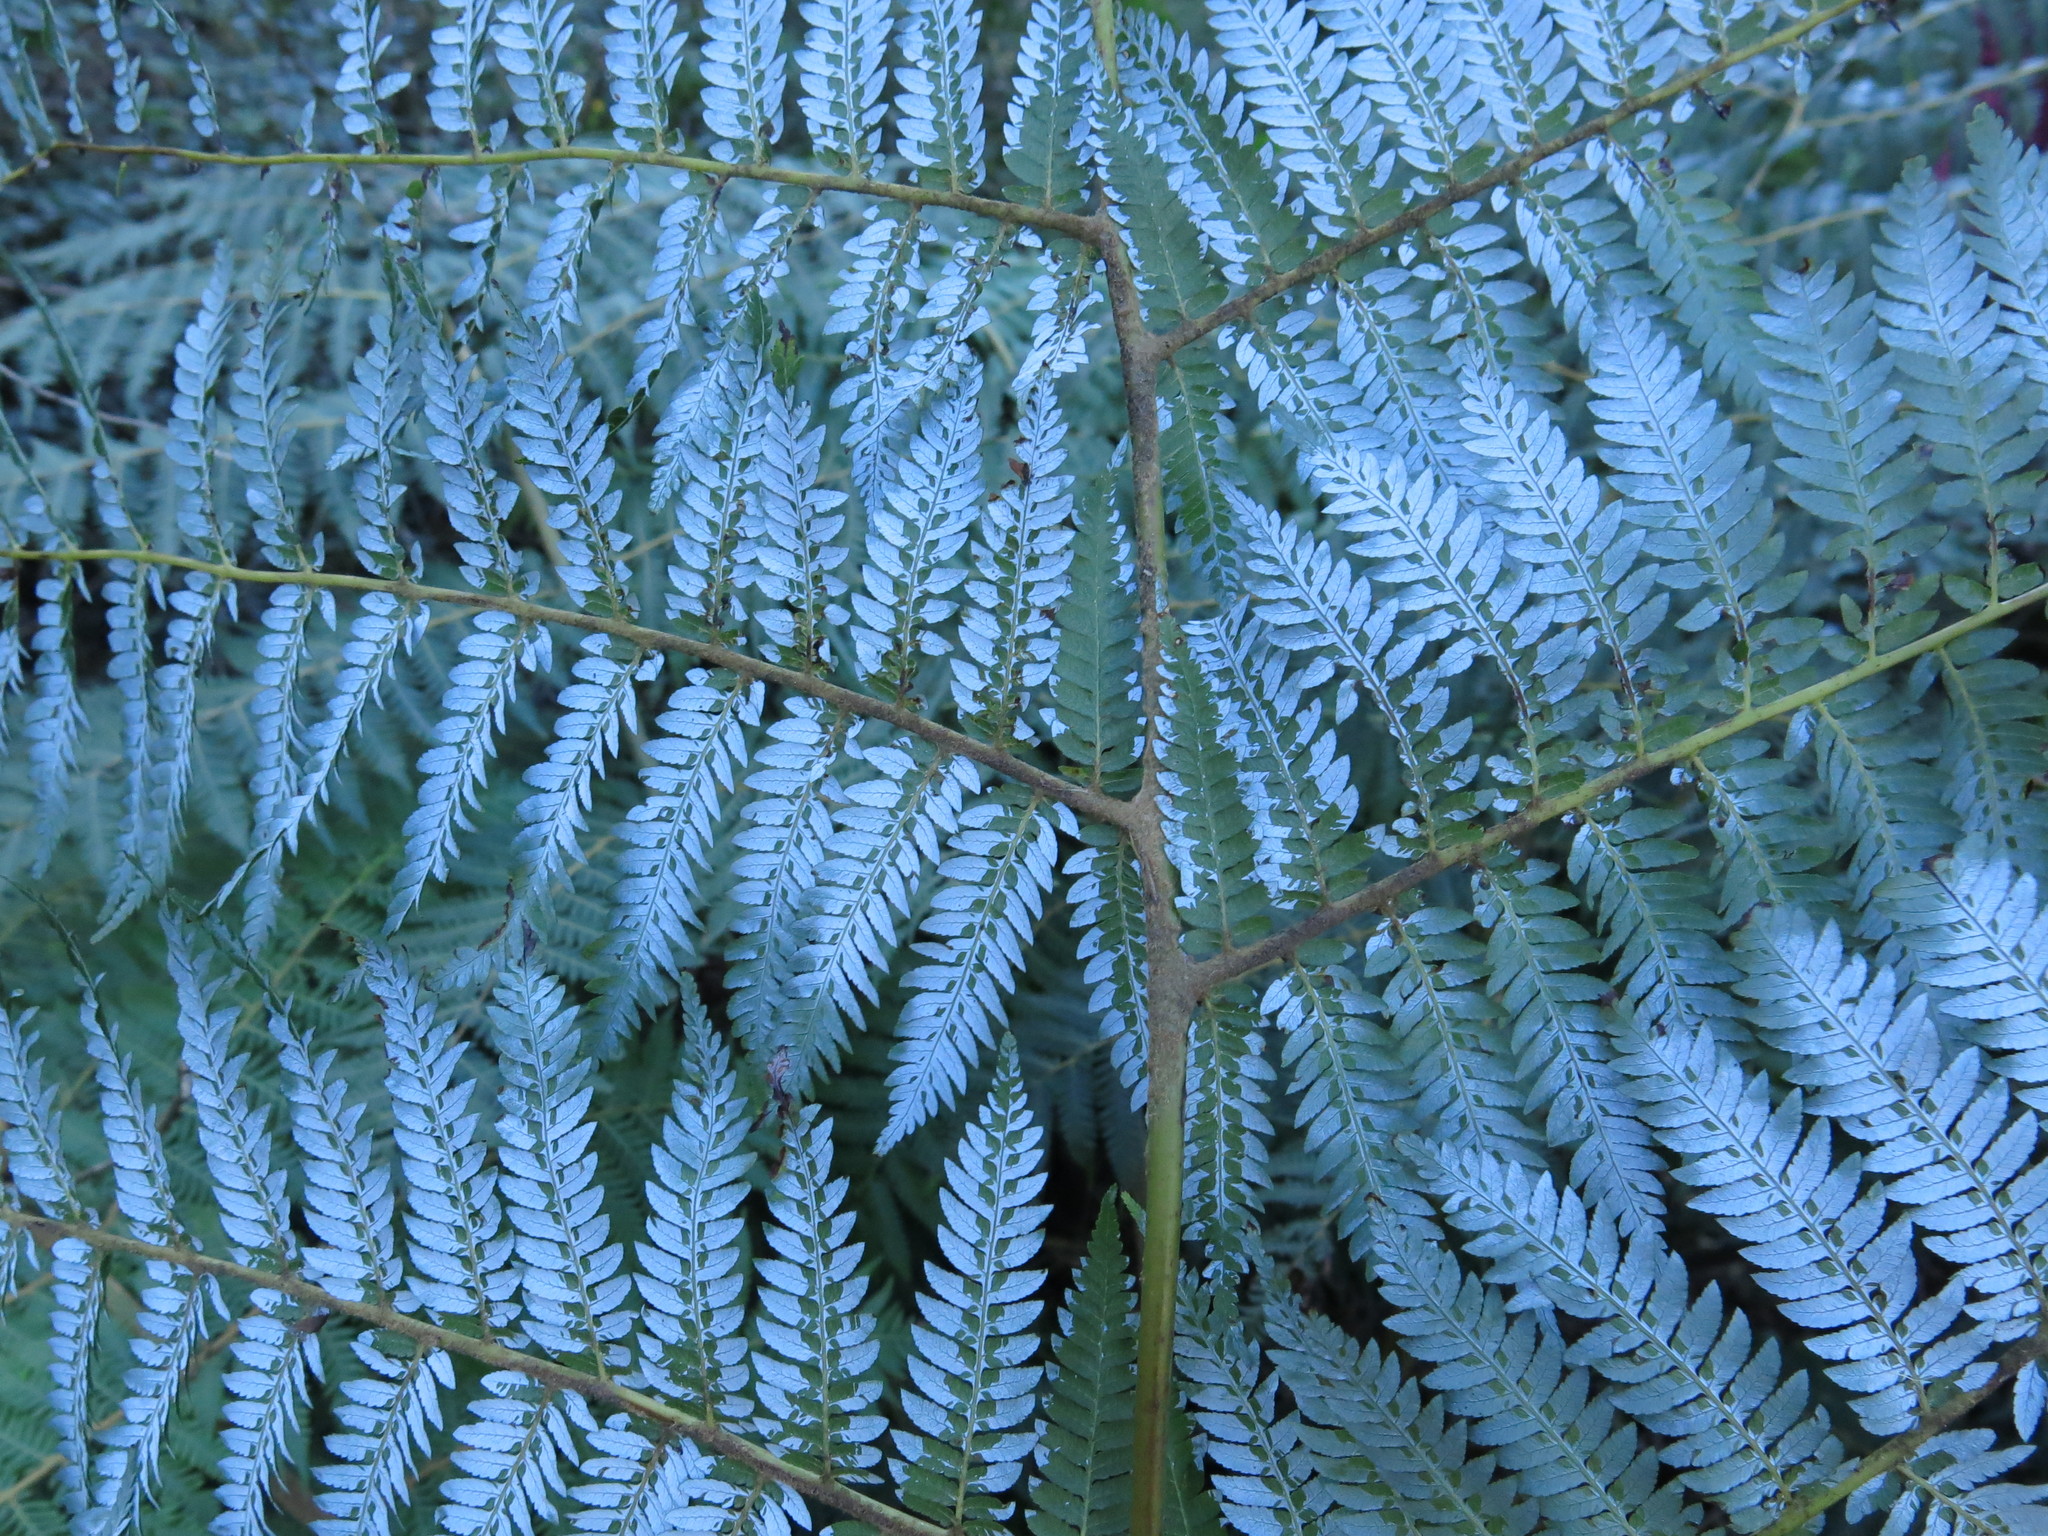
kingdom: Plantae
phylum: Tracheophyta
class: Polypodiopsida
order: Cyatheales
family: Cyatheaceae
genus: Alsophila
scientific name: Alsophila dealbata
